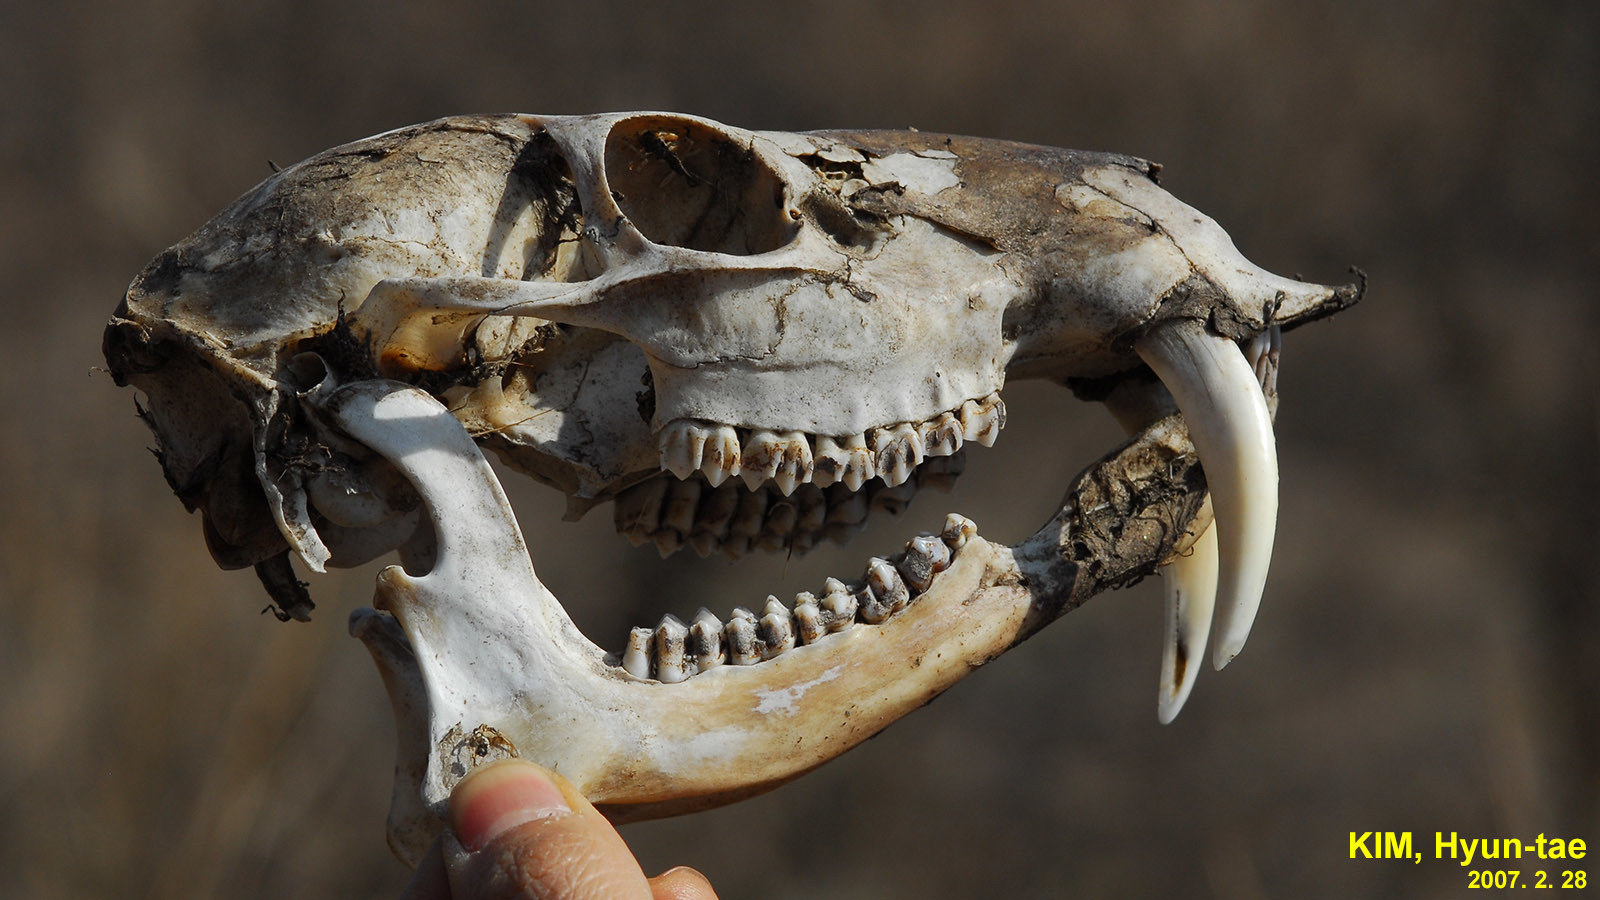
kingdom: Animalia
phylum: Chordata
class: Mammalia
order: Artiodactyla
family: Cervidae
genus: Hydropotes
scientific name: Hydropotes inermis
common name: Chinese water deer
